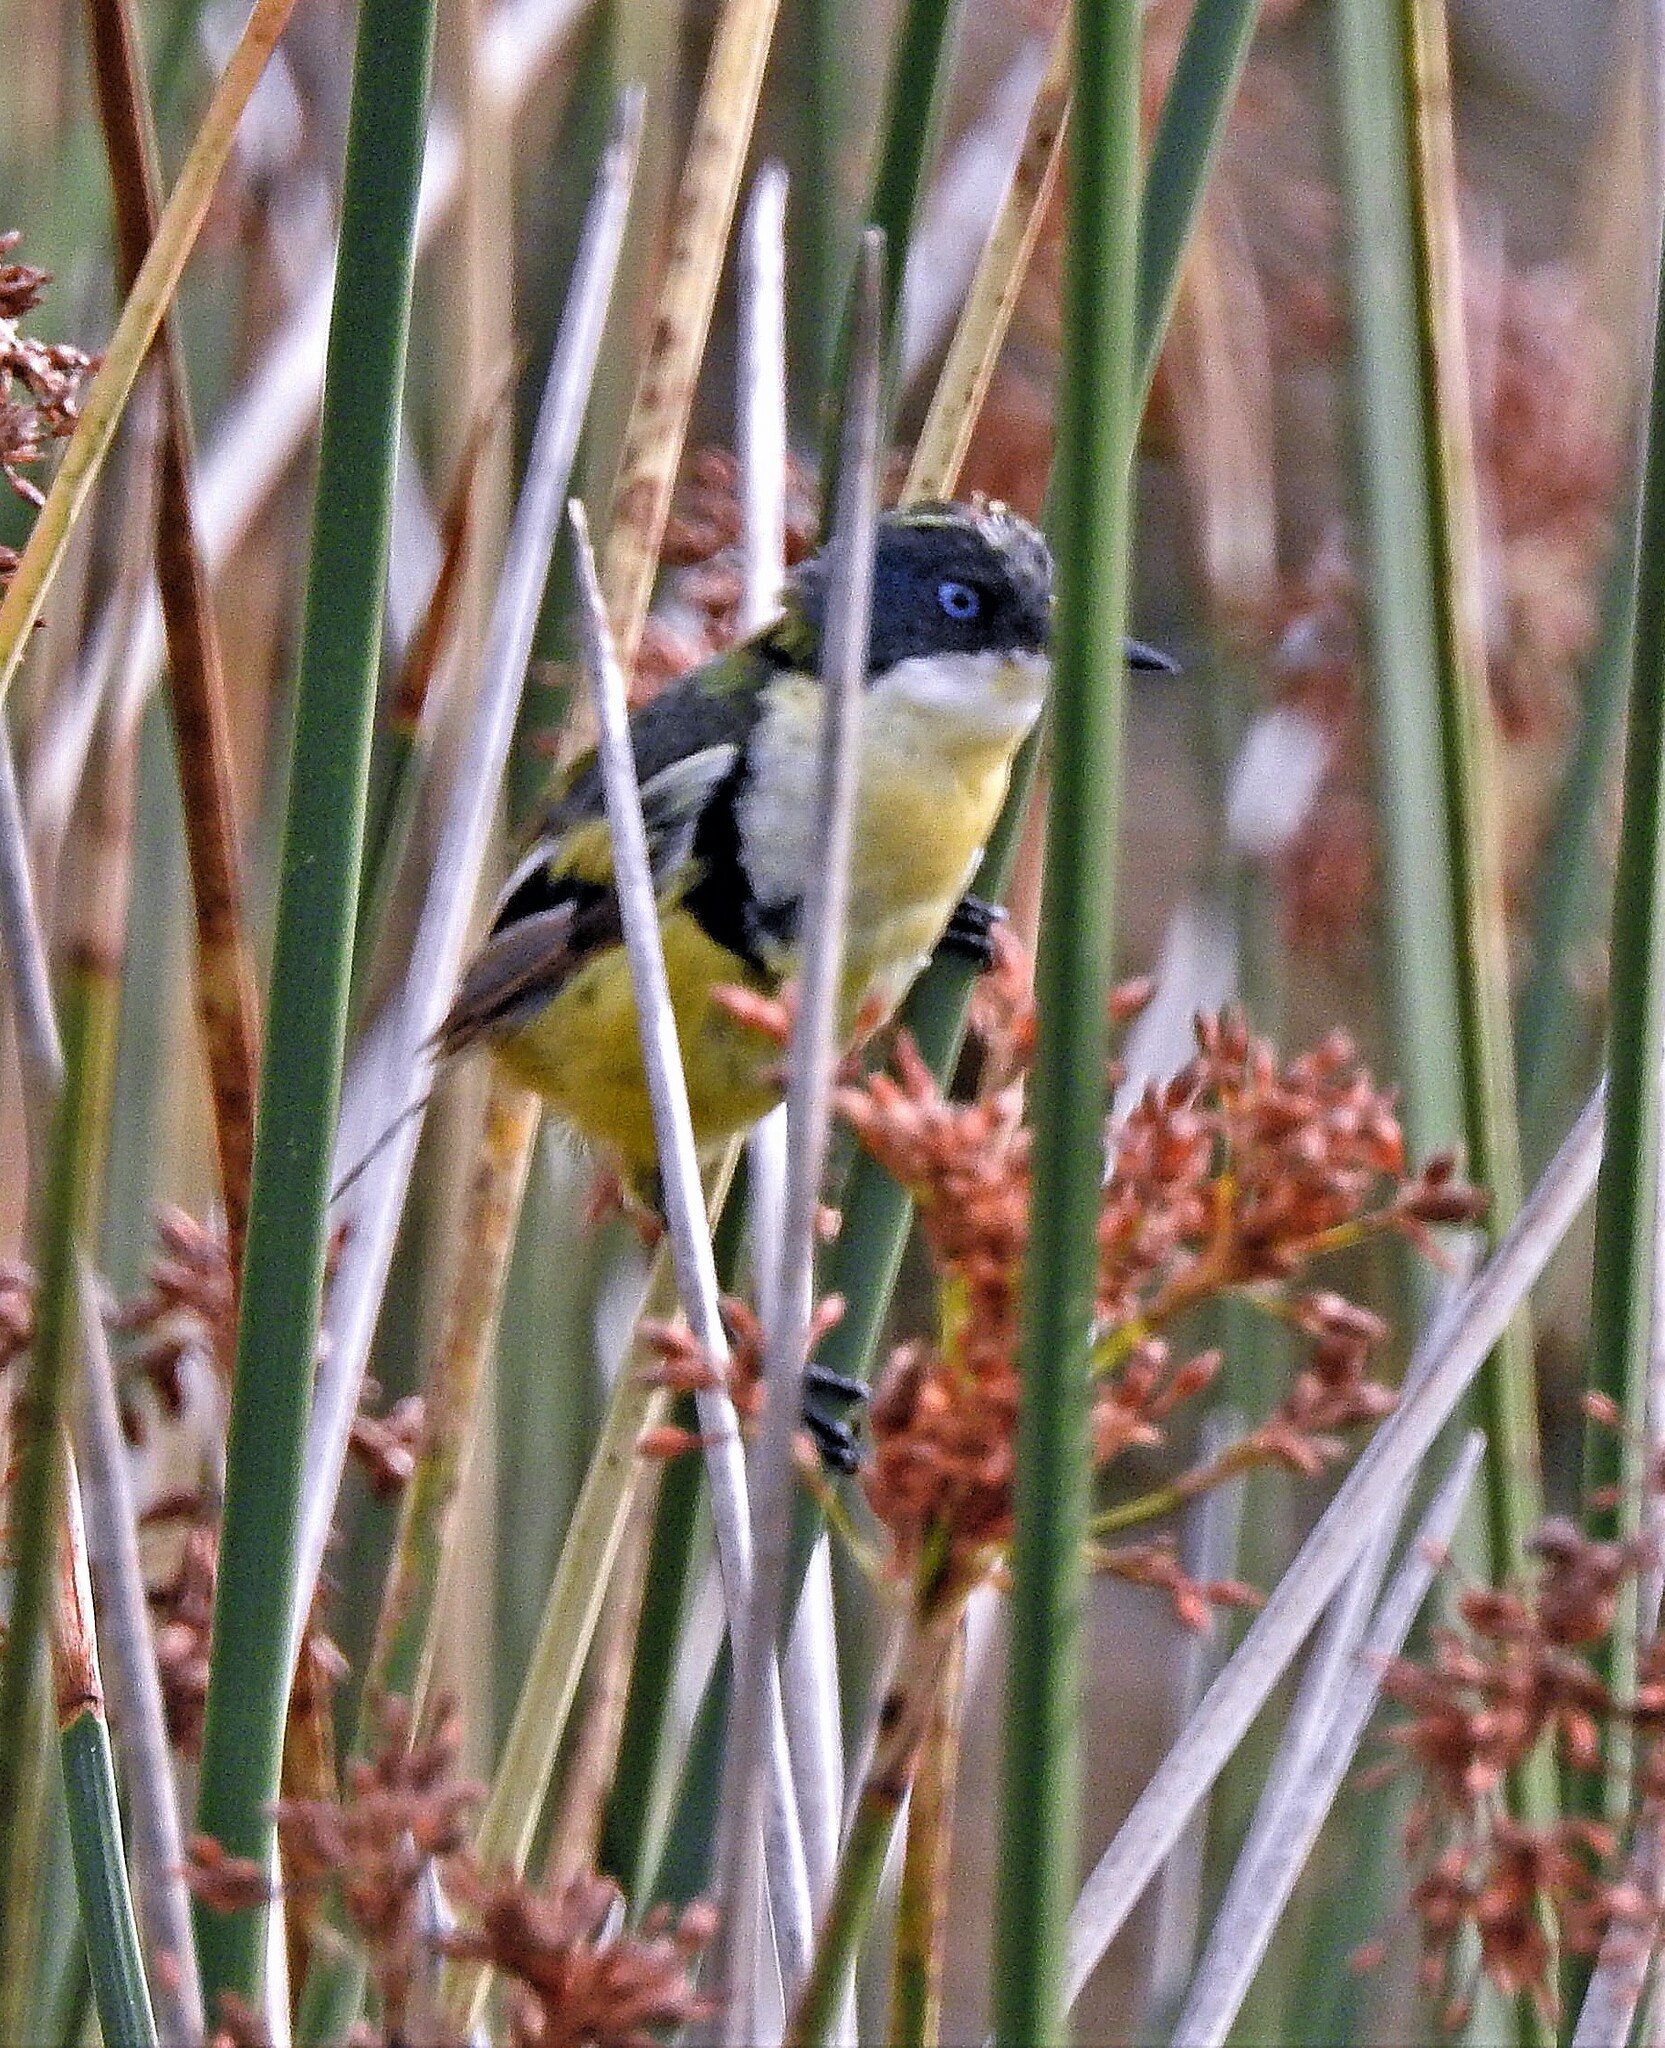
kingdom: Animalia
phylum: Chordata
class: Aves
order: Passeriformes
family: Tyrannidae
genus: Tachuris
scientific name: Tachuris rubrigastra
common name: Many-colored rush tyrant
